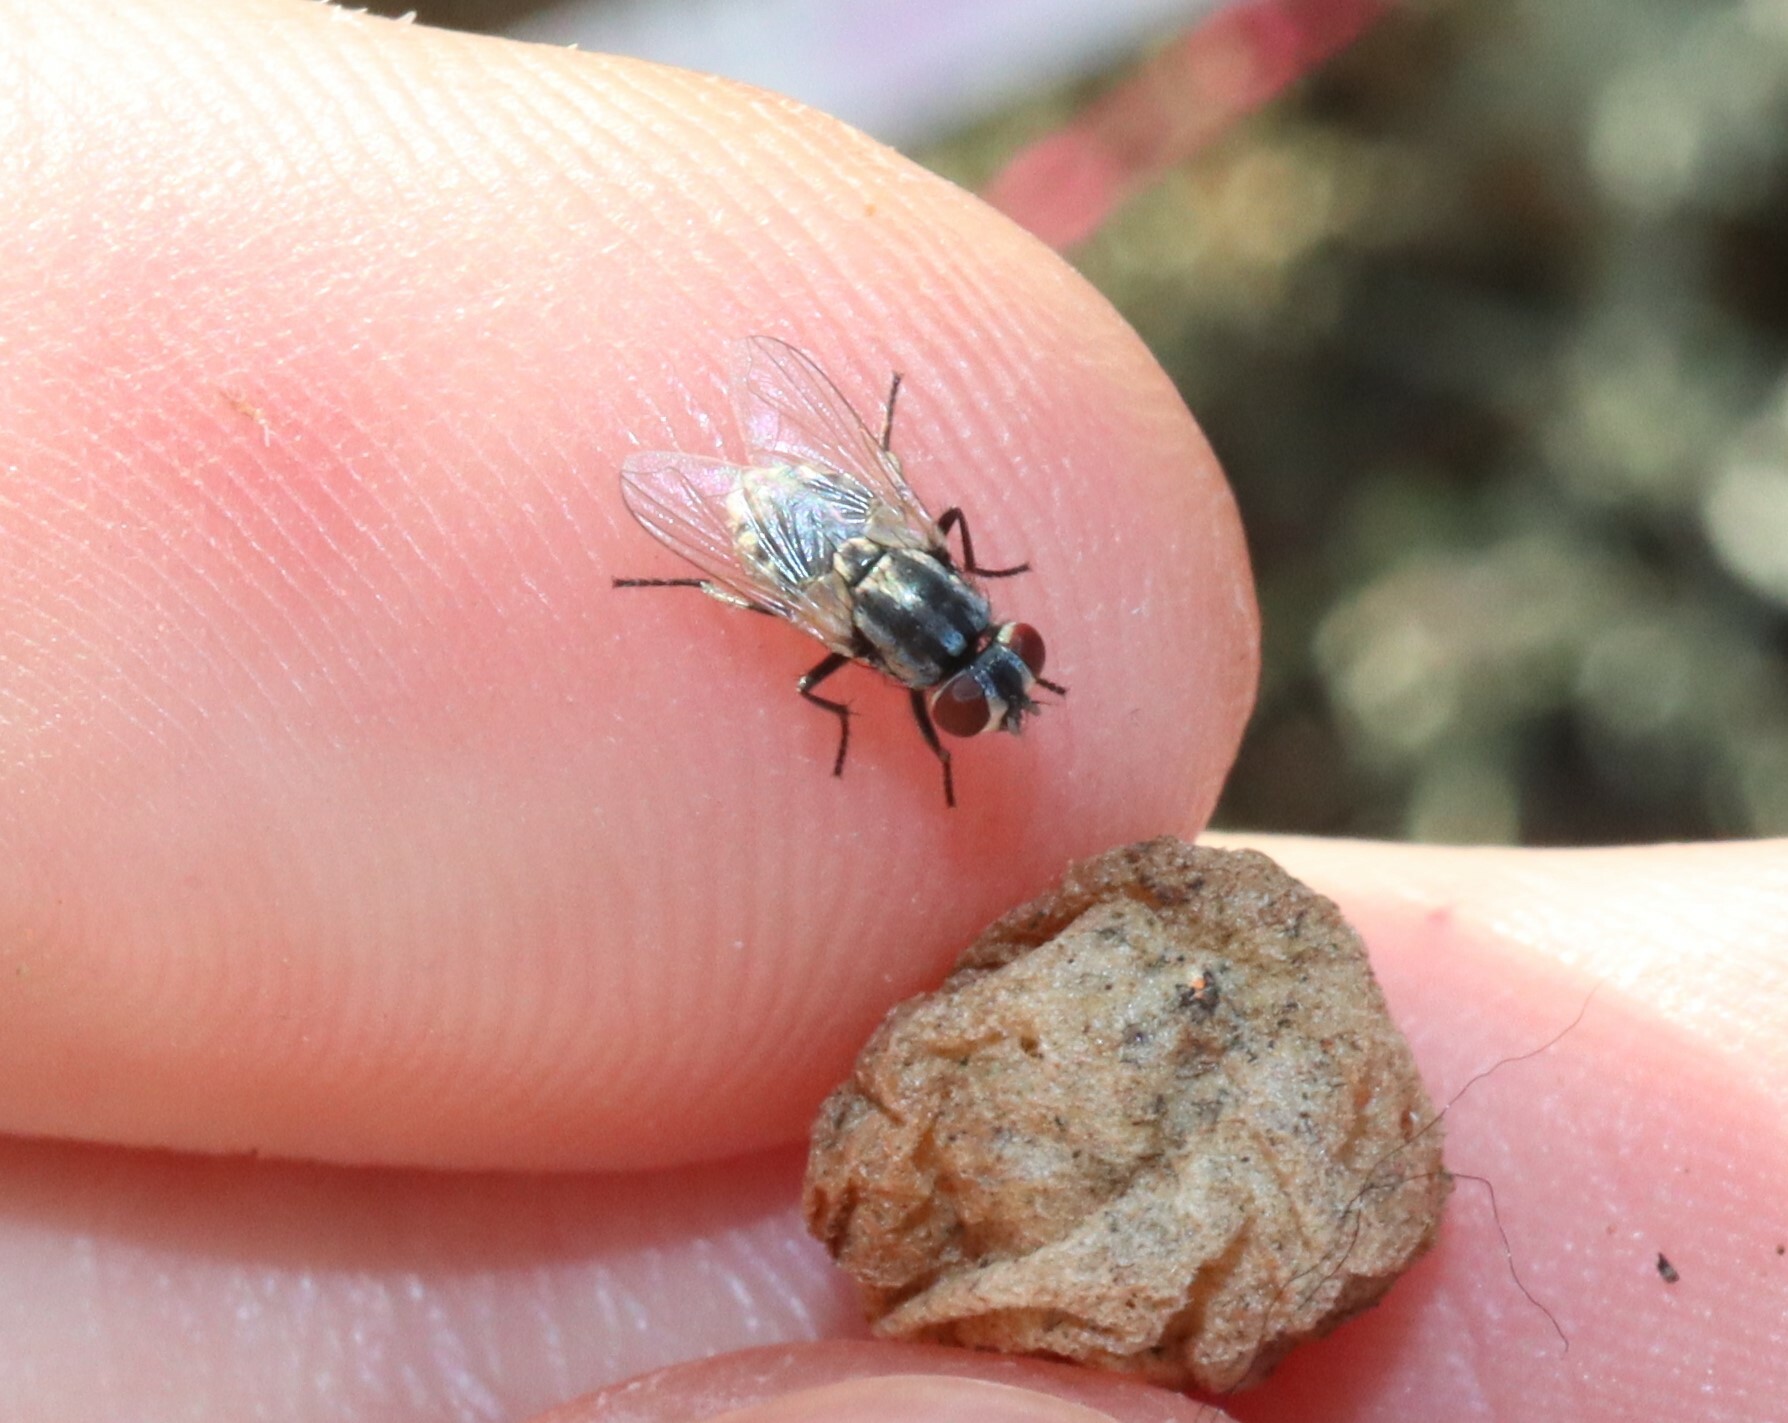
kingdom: Animalia
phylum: Arthropoda
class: Insecta
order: Diptera
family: Muscidae
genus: Musca
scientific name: Musca vetustissima
